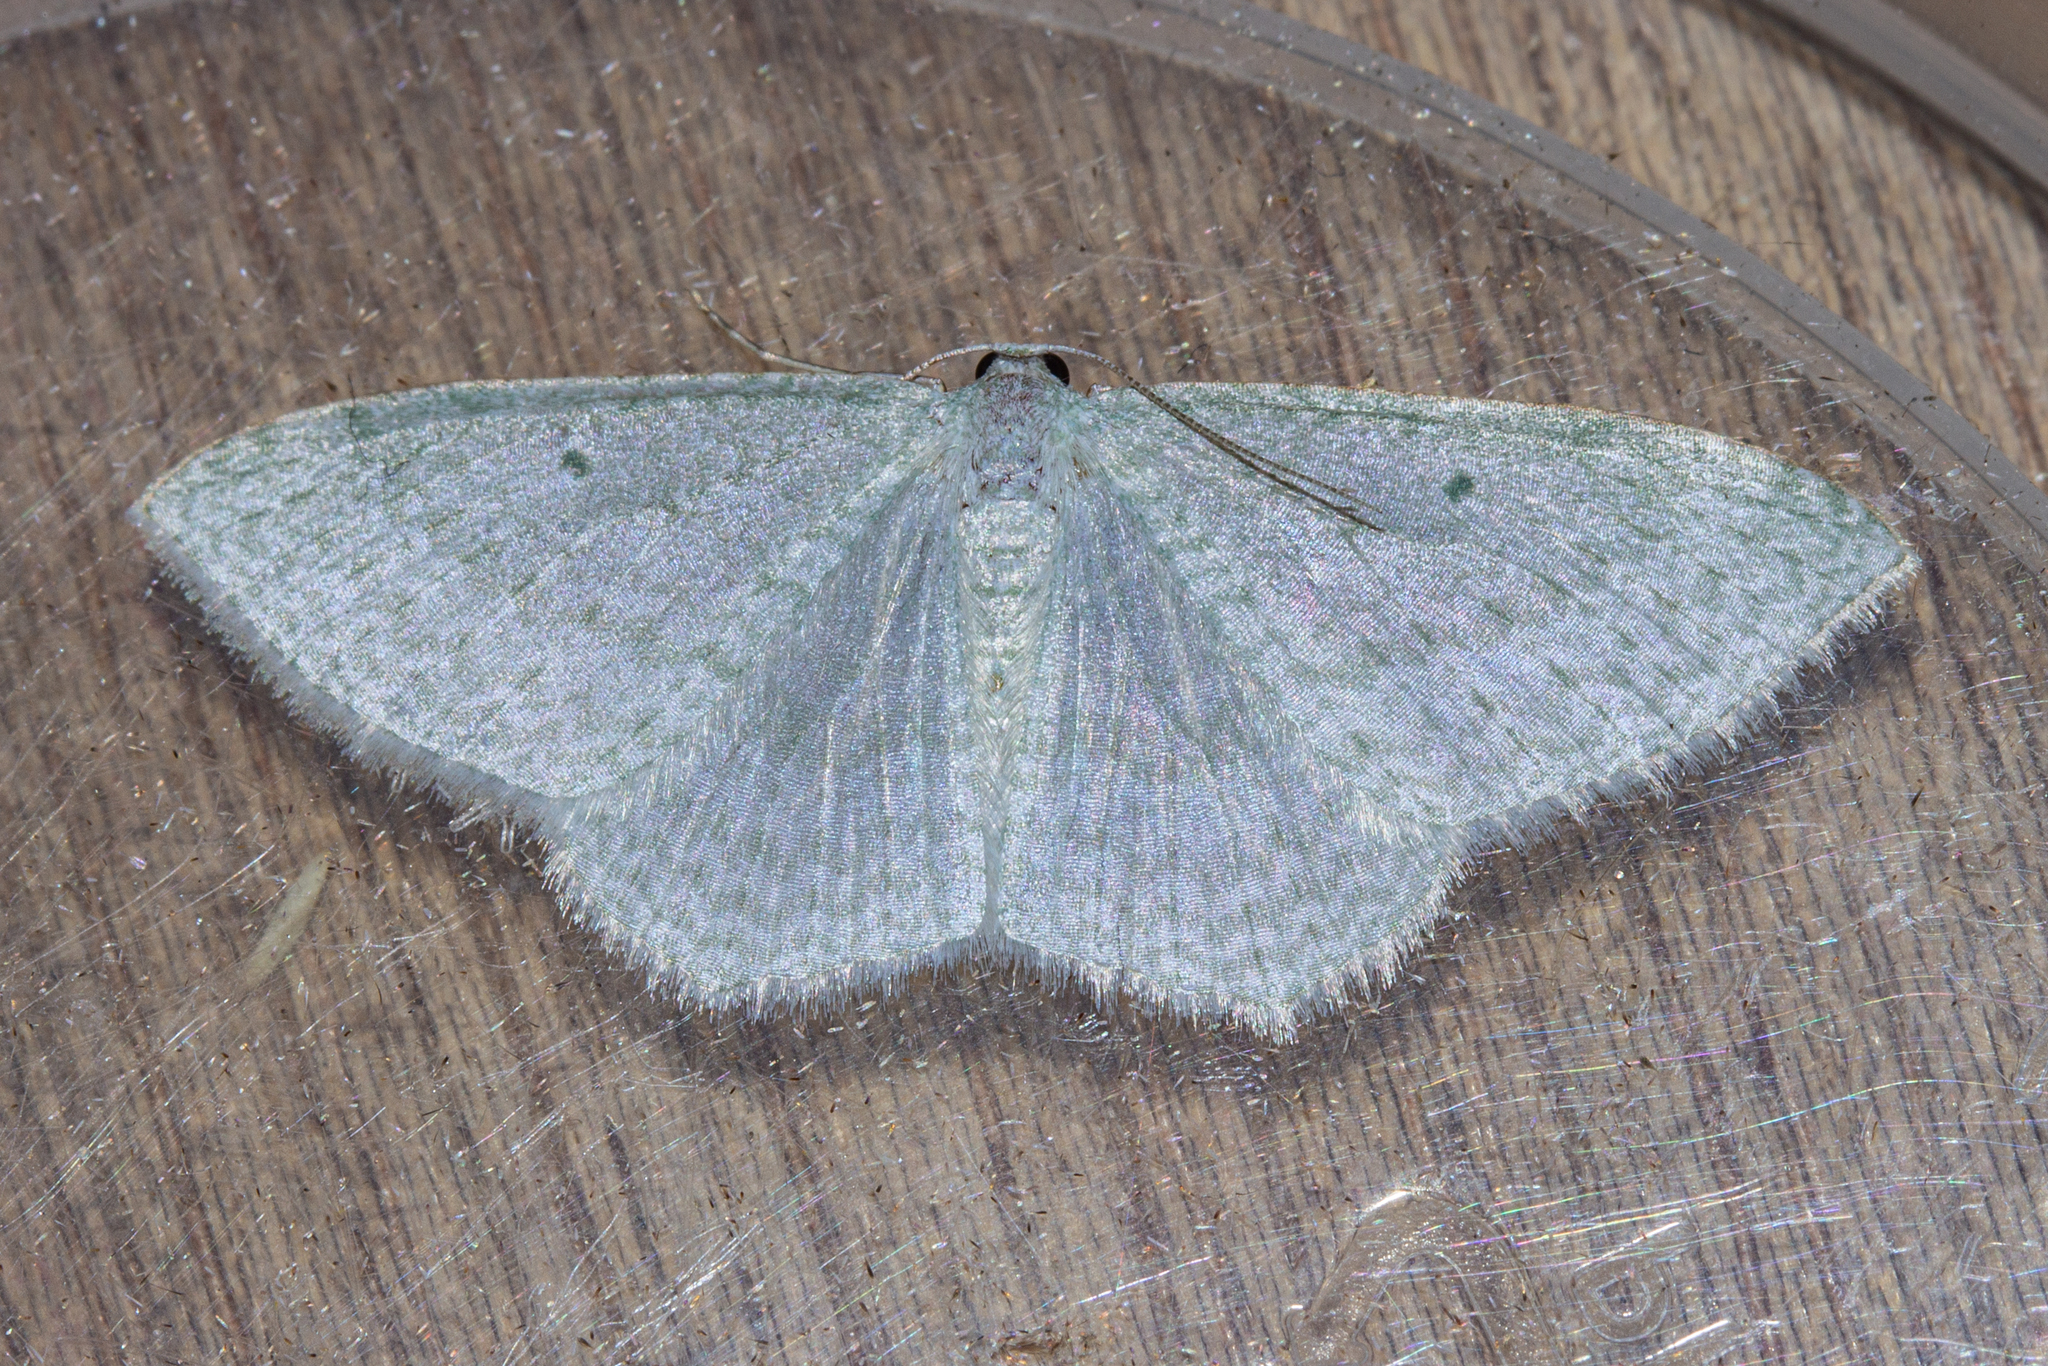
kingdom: Animalia
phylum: Arthropoda
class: Insecta
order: Lepidoptera
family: Geometridae
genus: Poecilasthena
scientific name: Poecilasthena pulchraria
